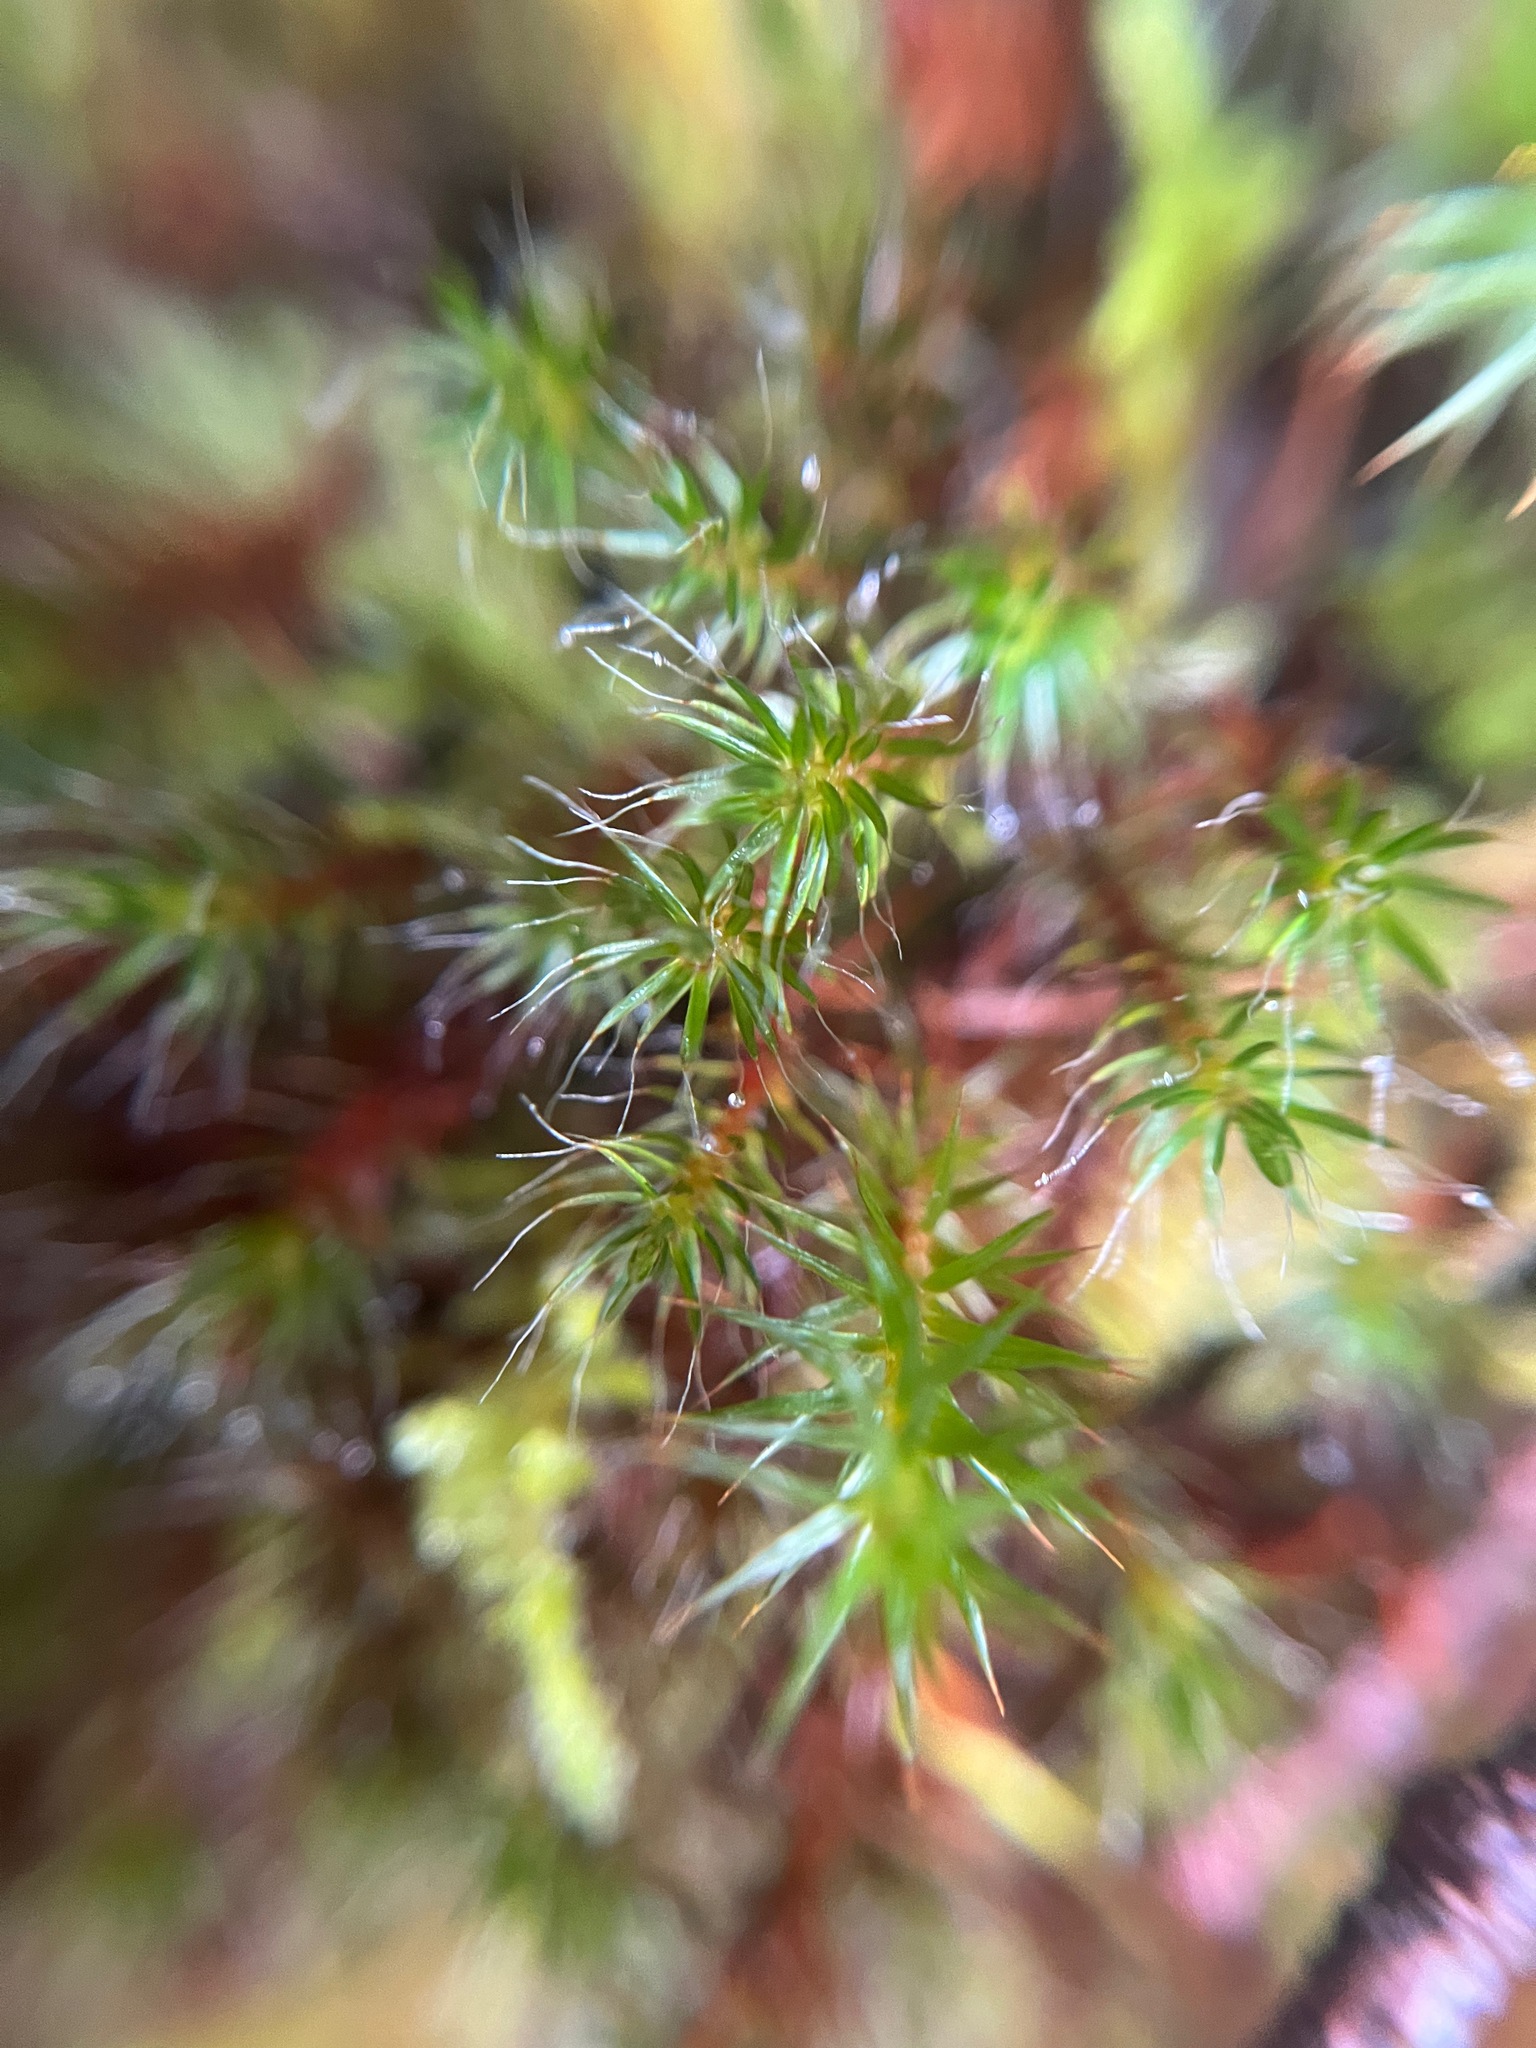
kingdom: Plantae
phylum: Bryophyta
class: Polytrichopsida
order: Polytrichales
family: Polytrichaceae
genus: Polytrichum
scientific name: Polytrichum piliferum
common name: Bristly haircap
